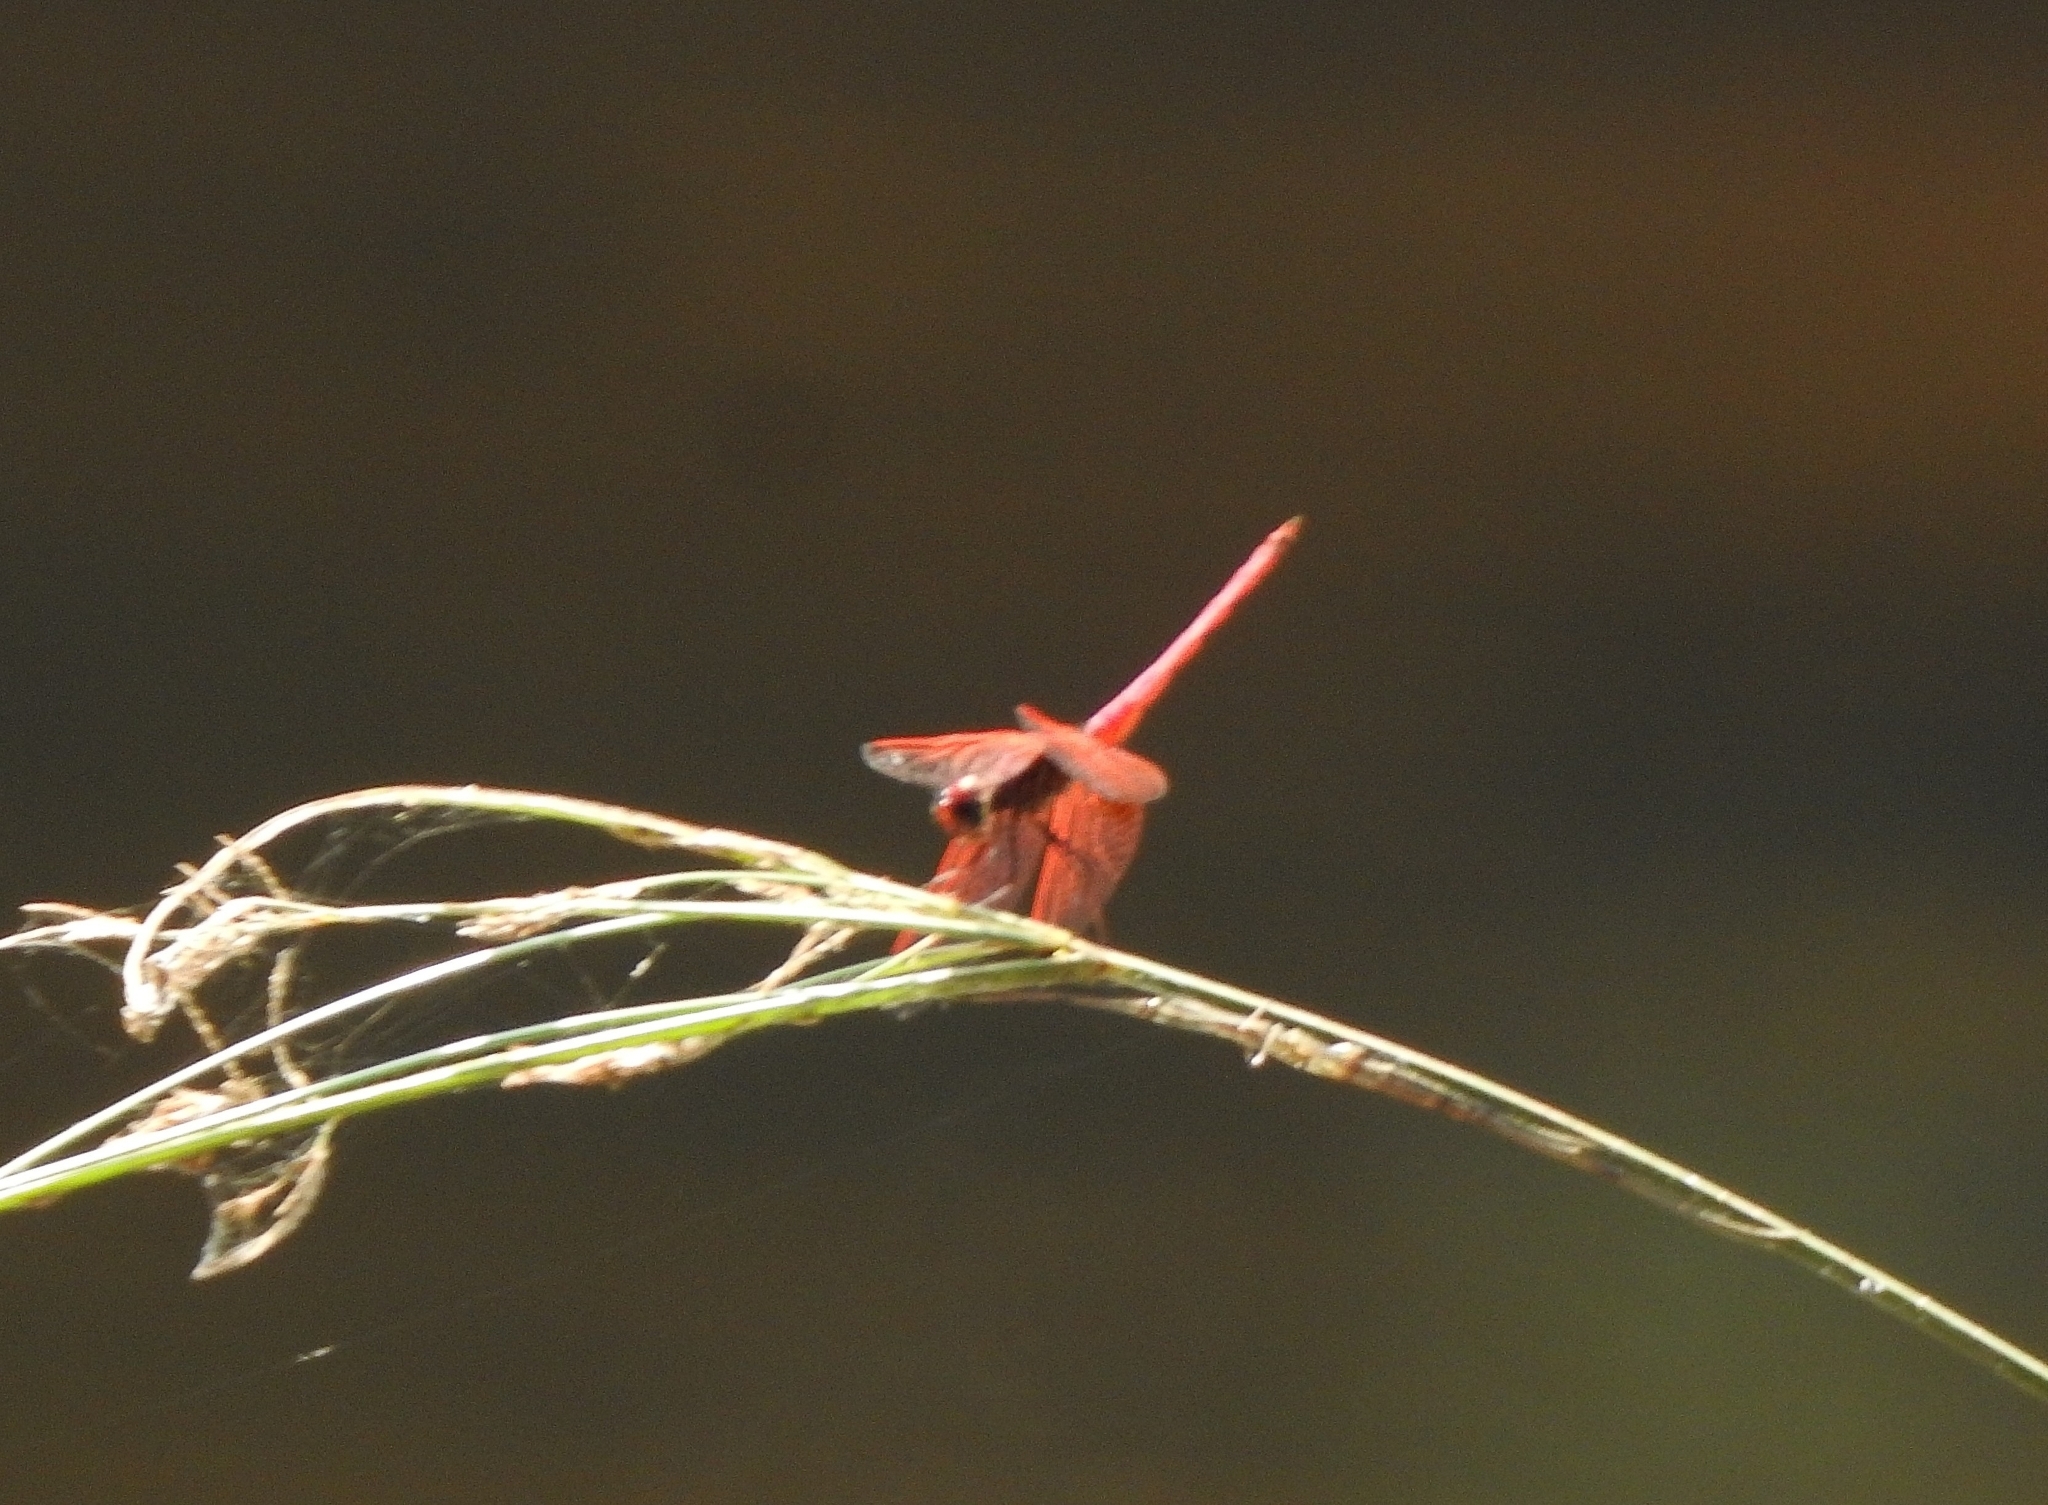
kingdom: Animalia
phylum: Arthropoda
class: Insecta
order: Odonata
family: Libellulidae
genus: Trithemis
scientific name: Trithemis aurora
